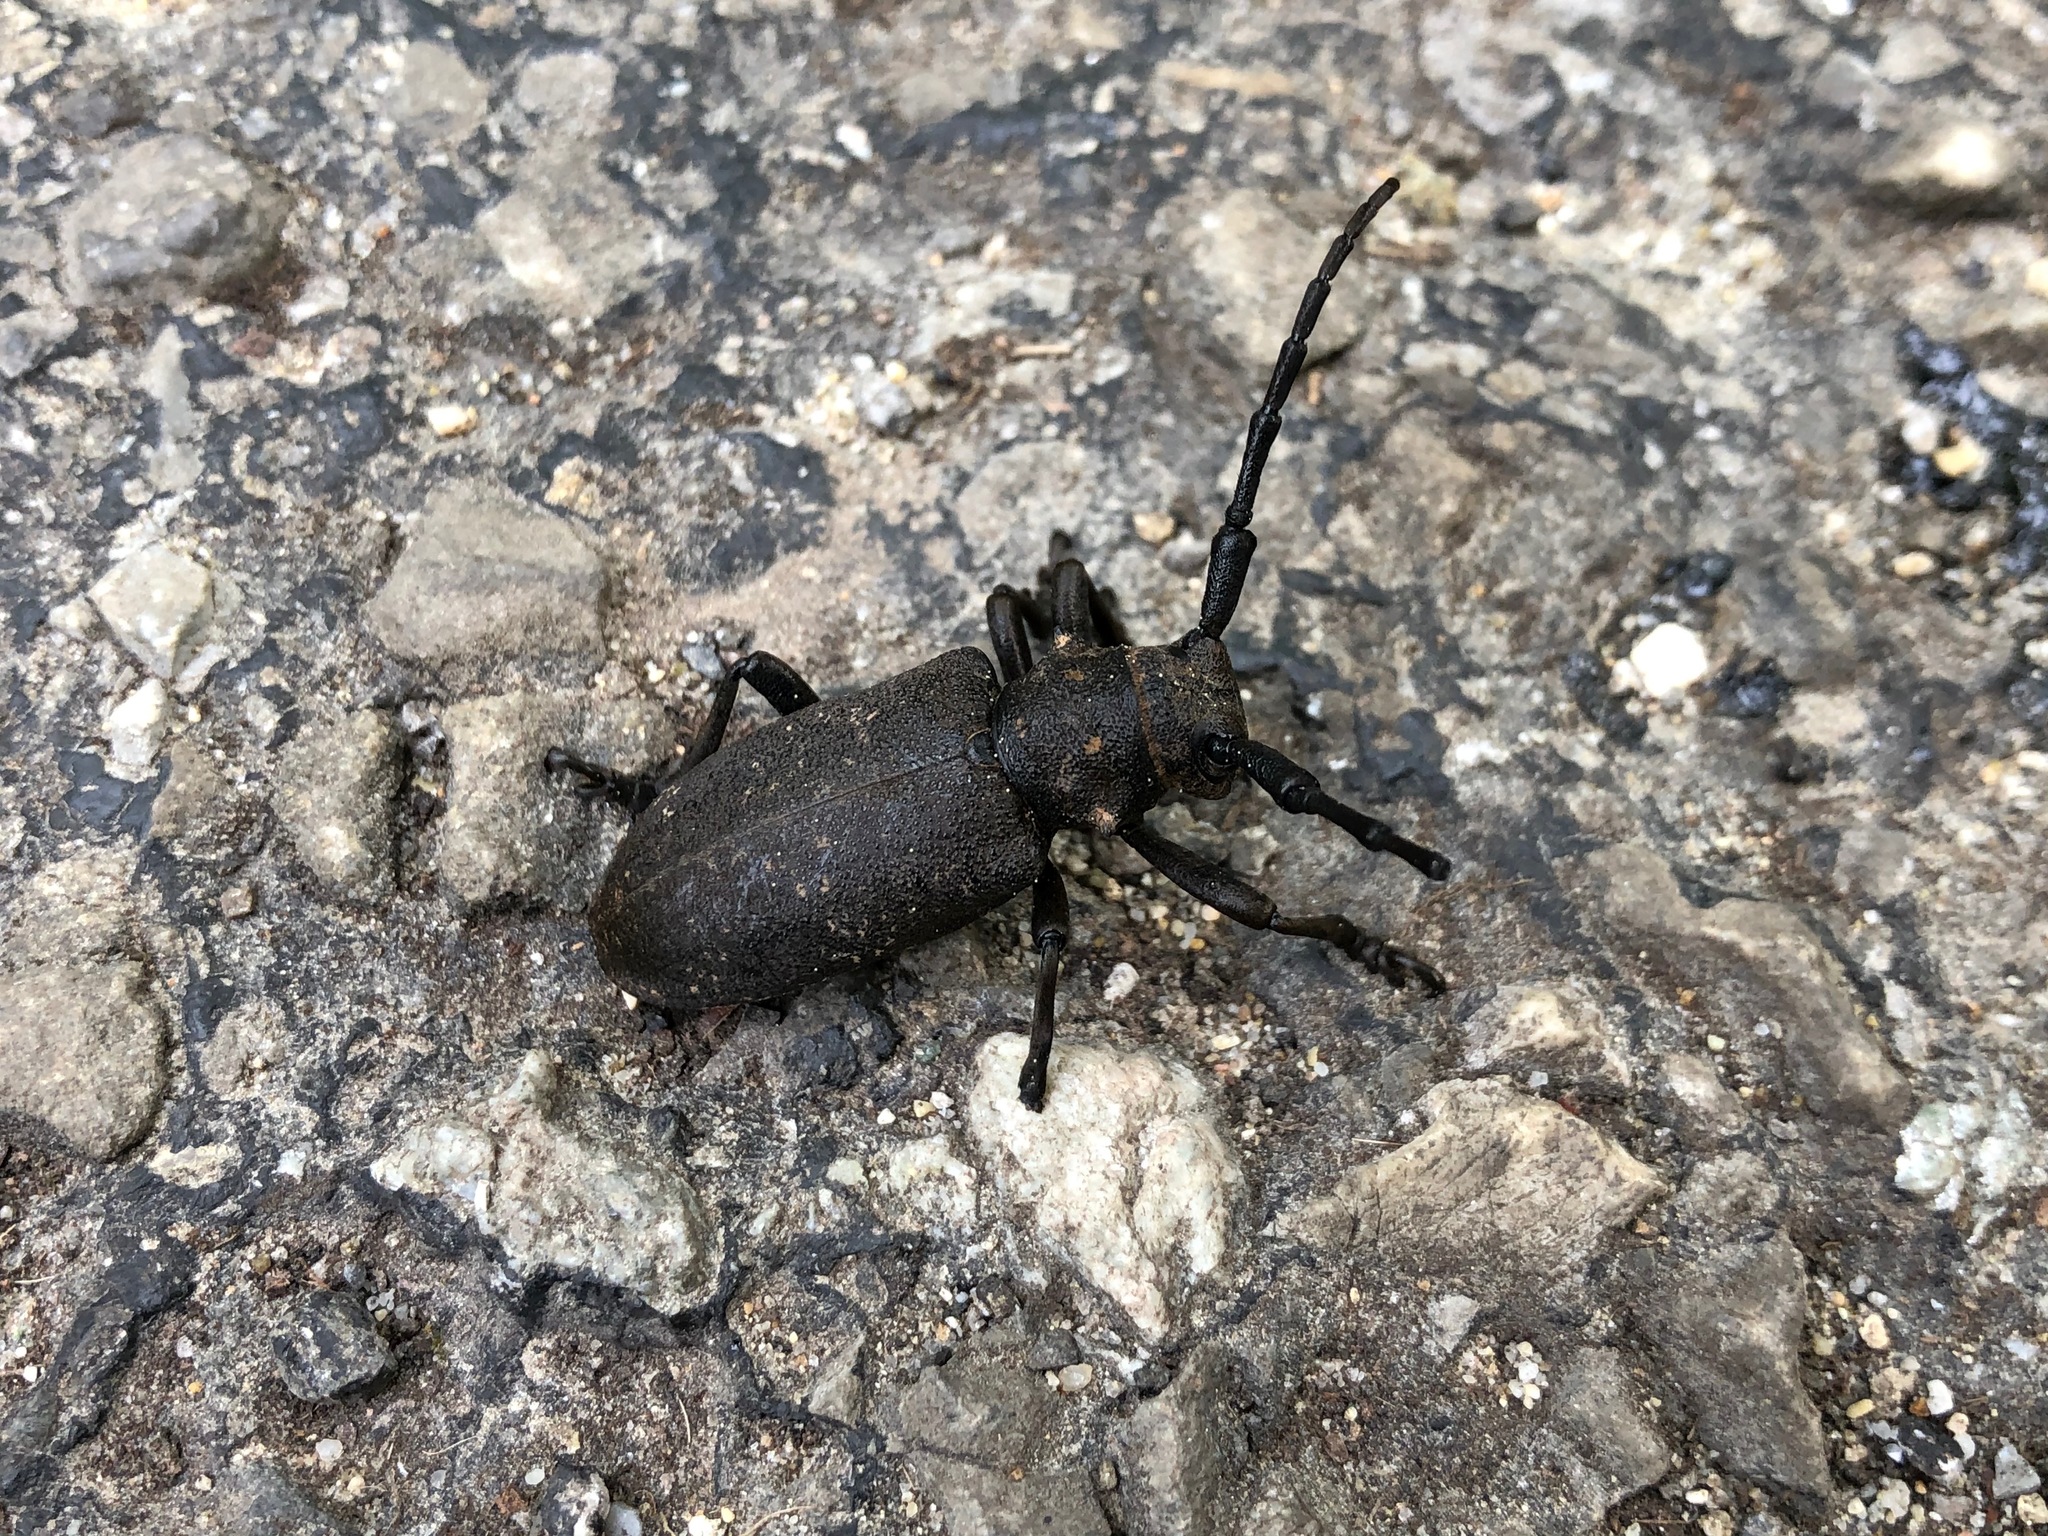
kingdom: Animalia
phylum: Arthropoda
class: Insecta
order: Coleoptera
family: Cerambycidae
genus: Lamia
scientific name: Lamia textor
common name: Weaver beetle
